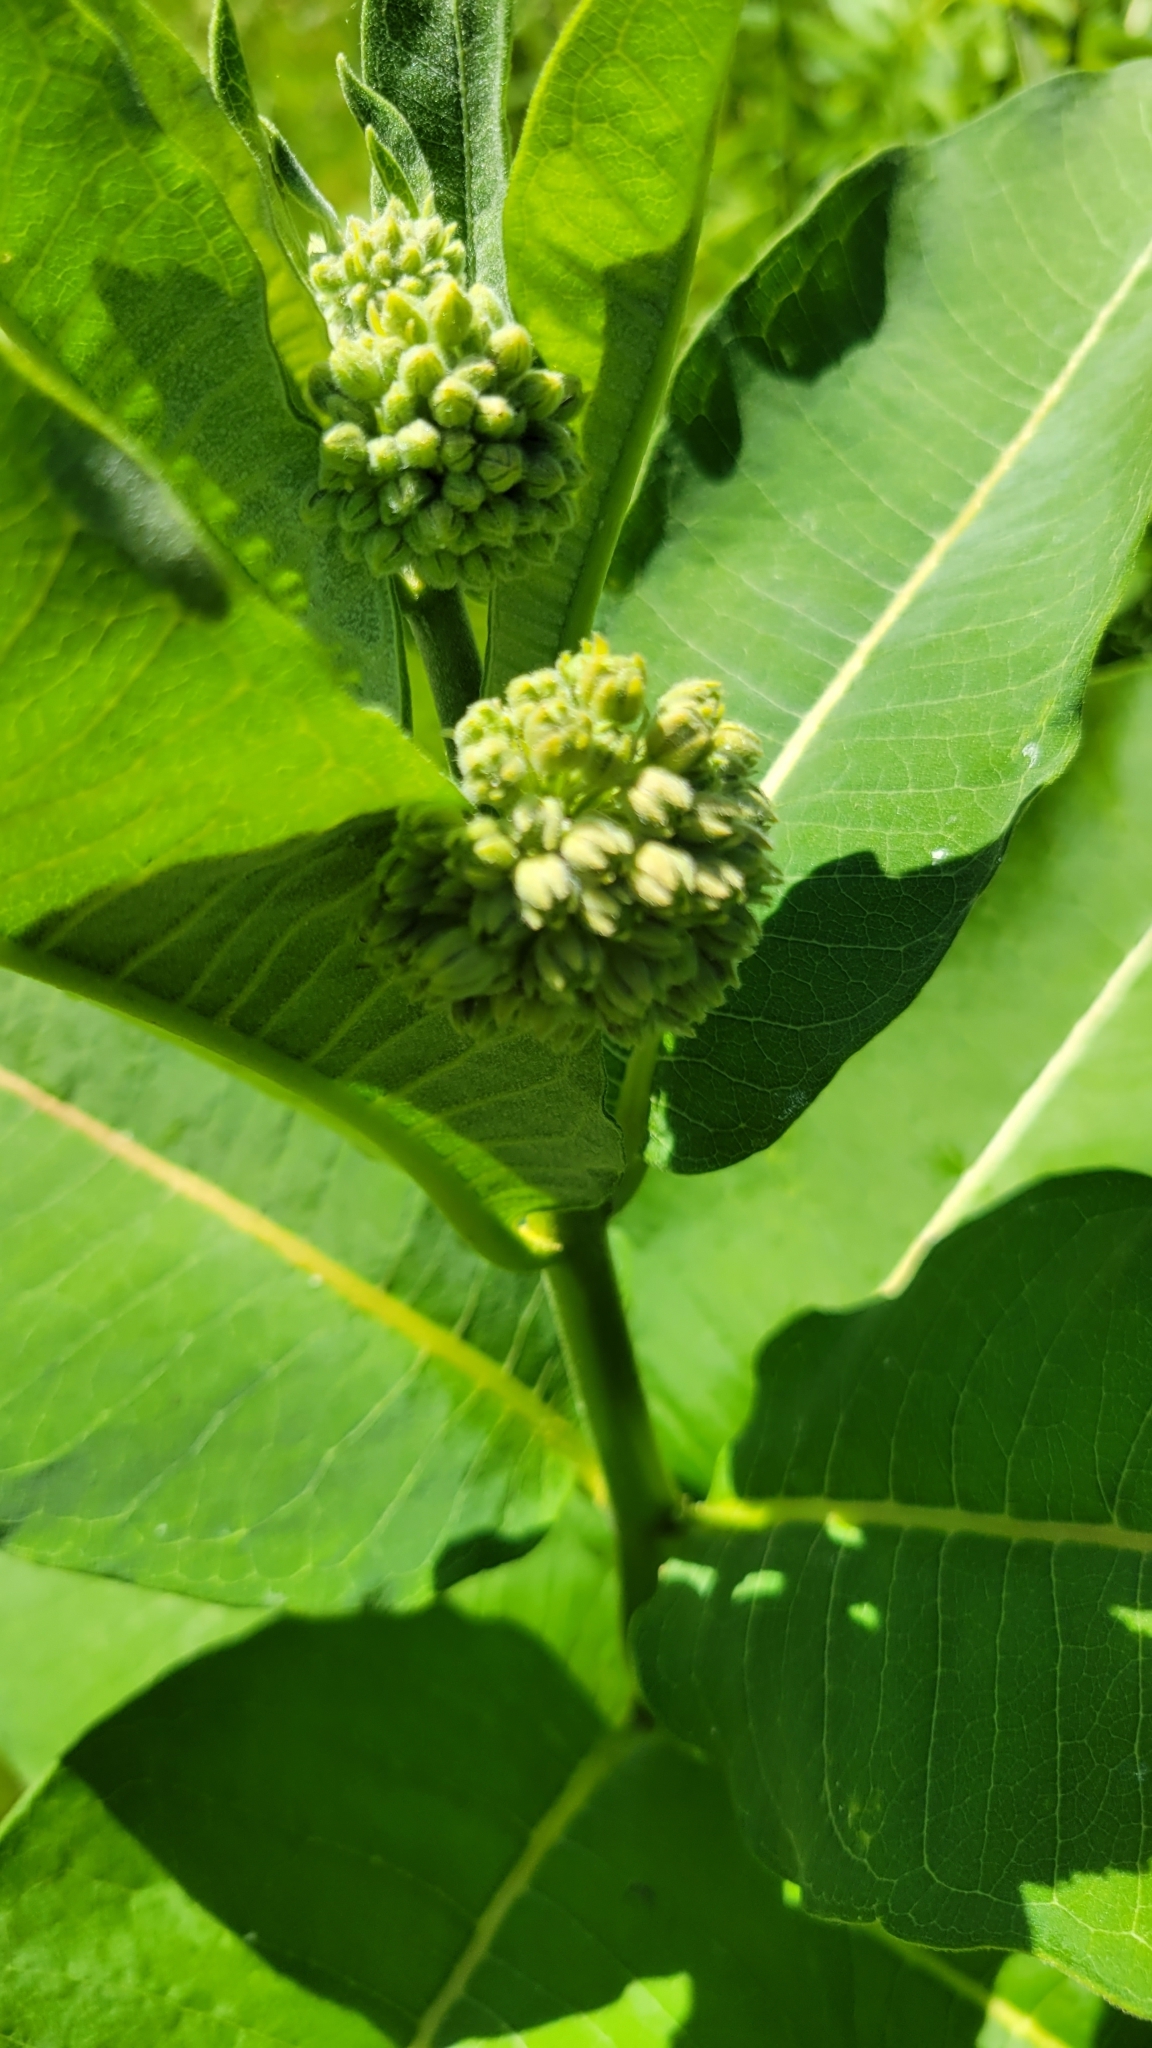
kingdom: Plantae
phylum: Tracheophyta
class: Magnoliopsida
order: Gentianales
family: Apocynaceae
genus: Asclepias
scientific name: Asclepias syriaca
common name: Common milkweed
